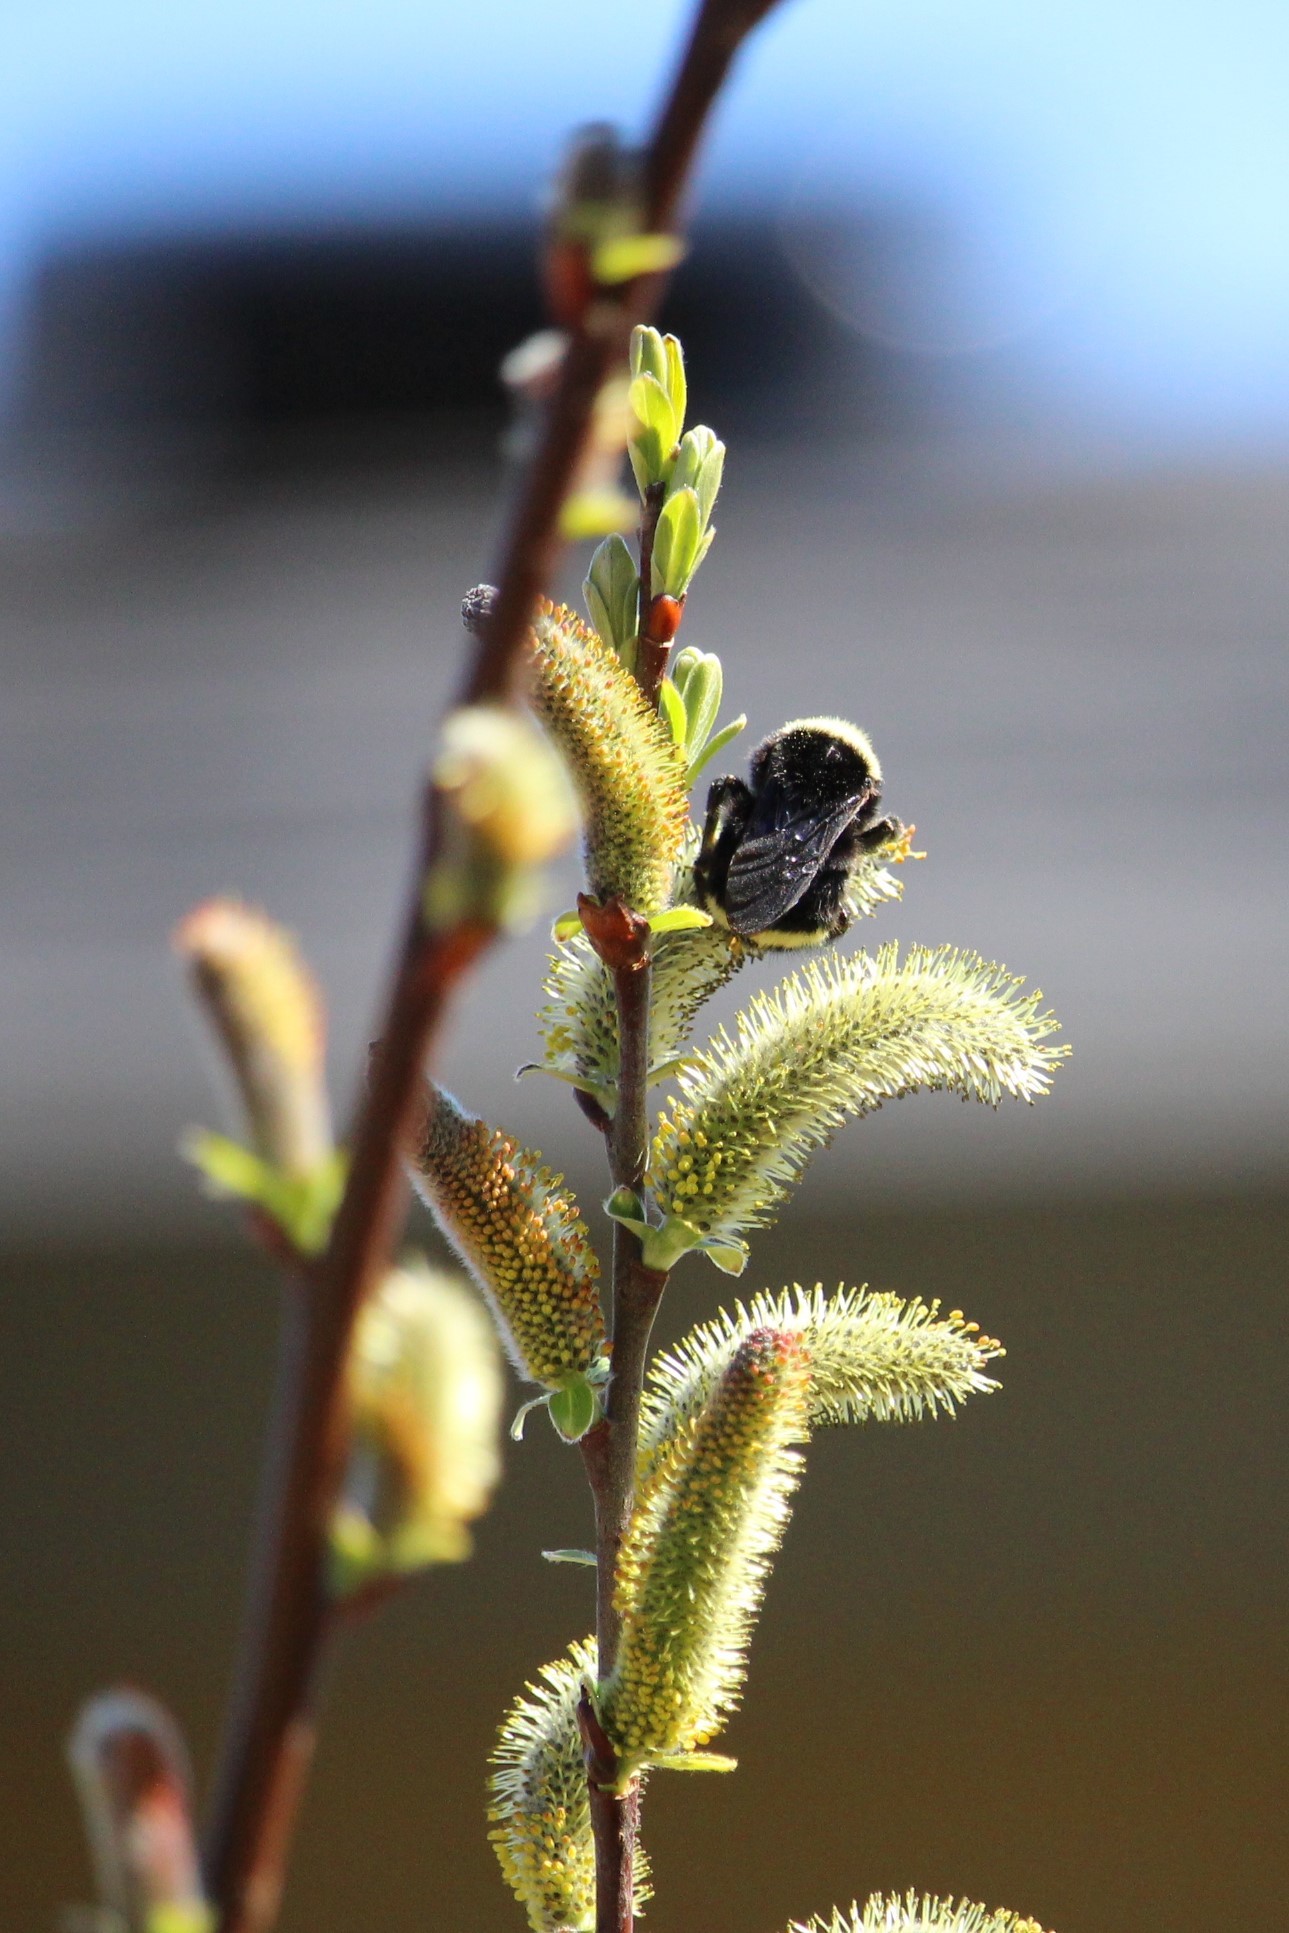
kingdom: Animalia
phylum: Arthropoda
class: Insecta
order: Hymenoptera
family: Apidae
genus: Bombus
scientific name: Bombus vosnesenskii
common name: Vosnesensky bumble bee
